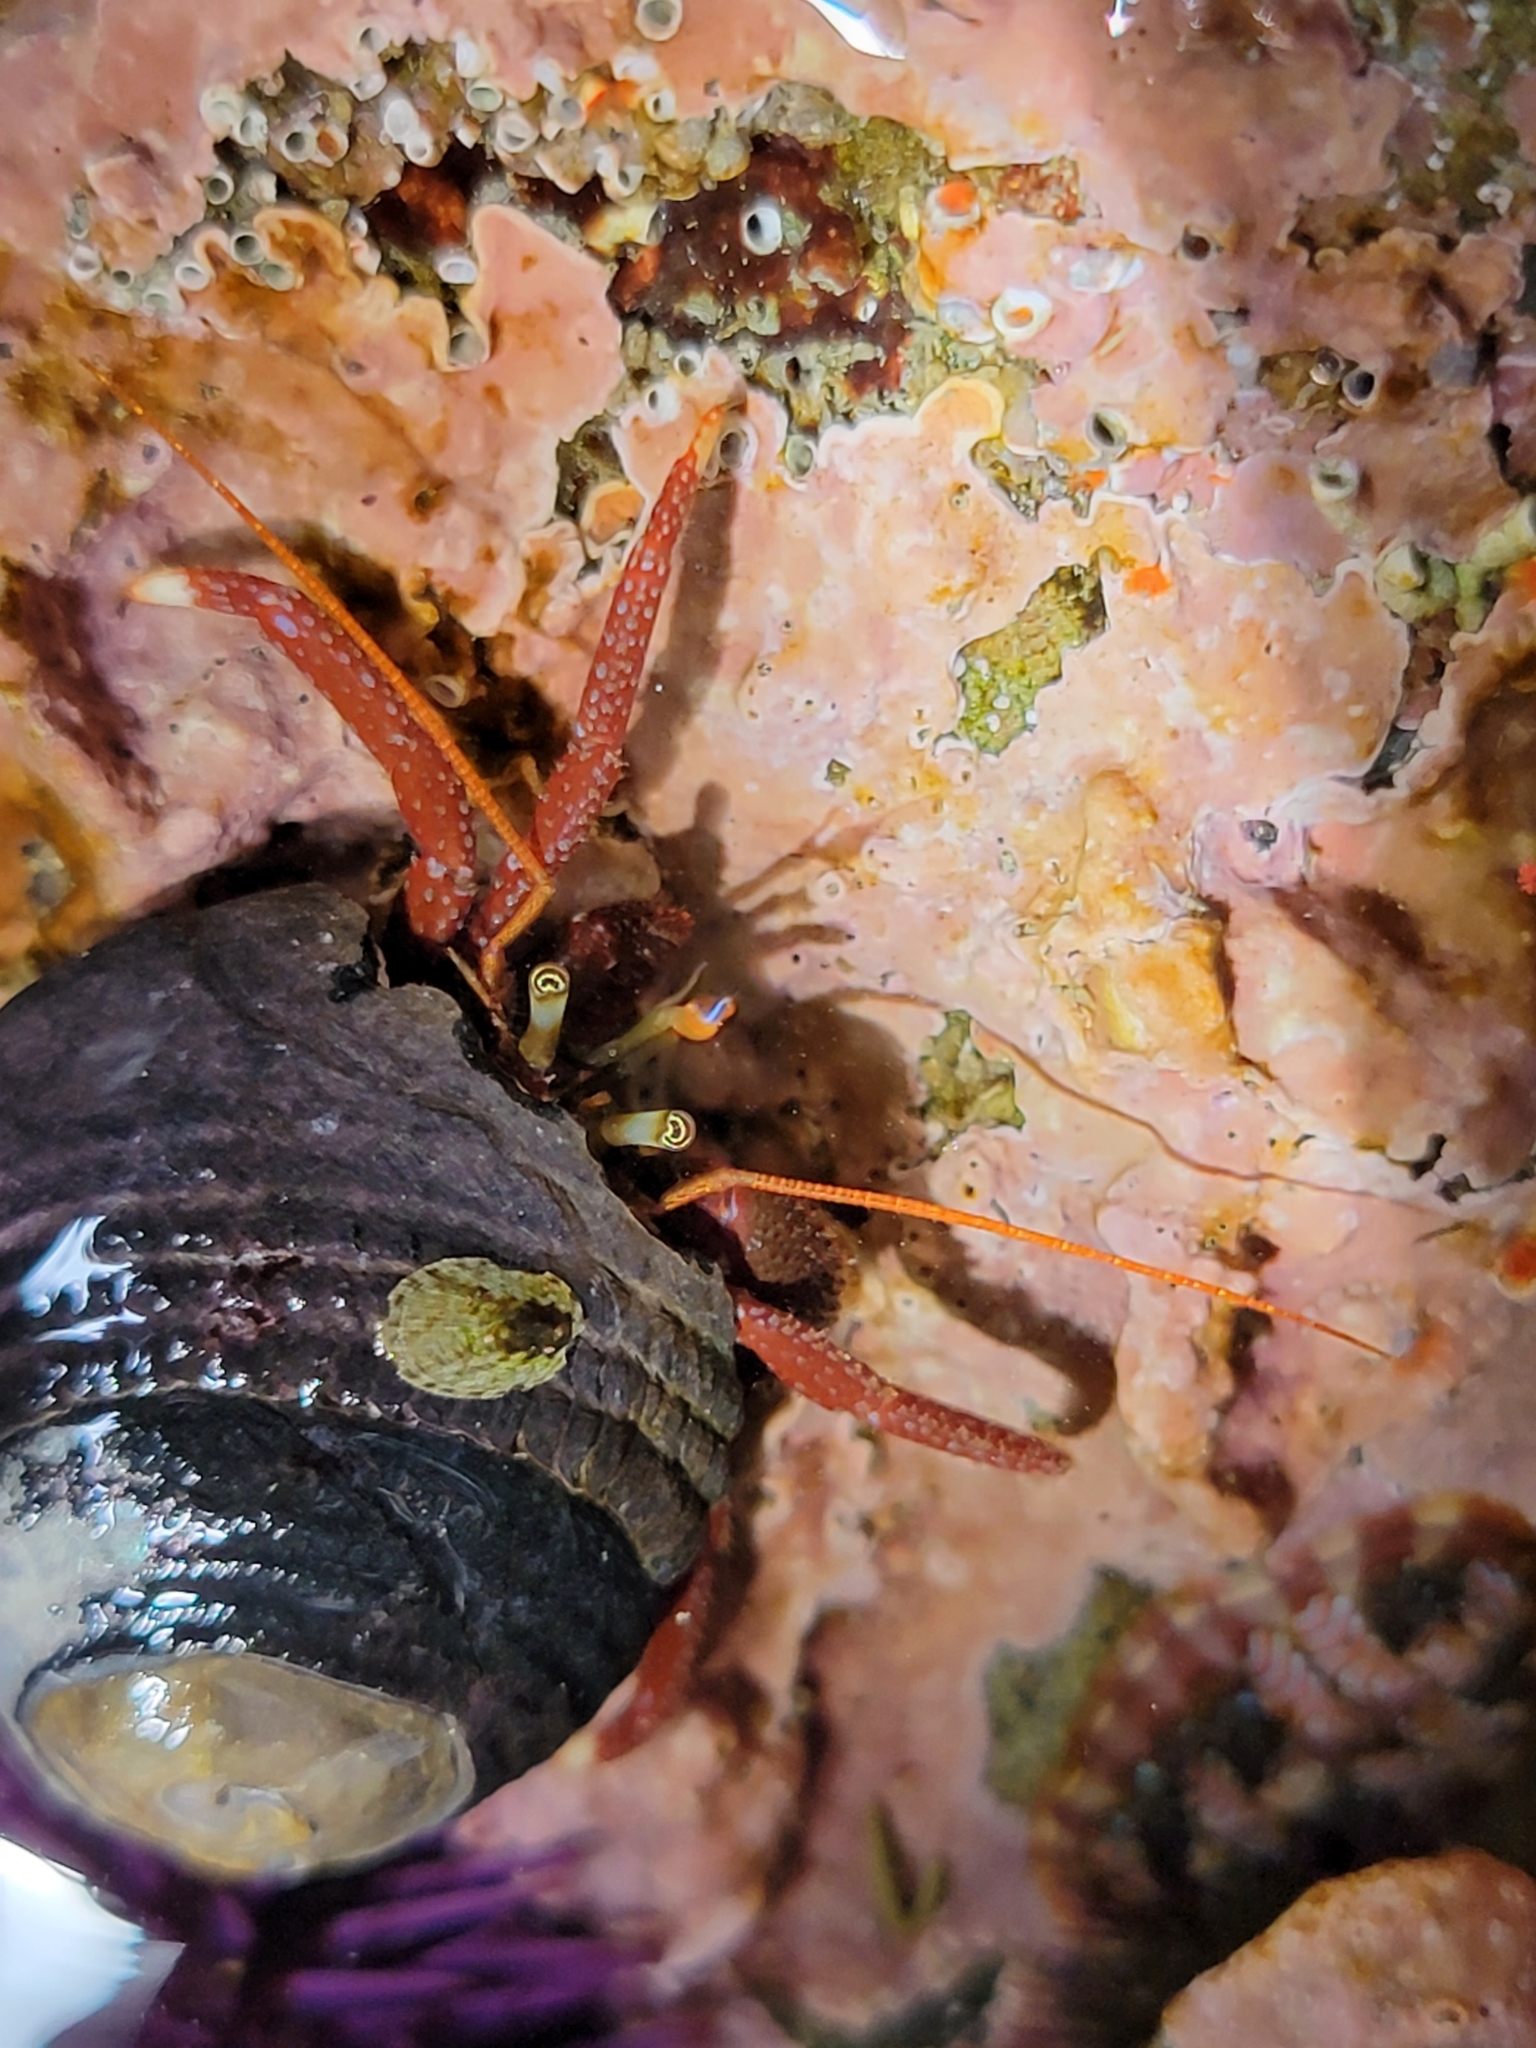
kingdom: Animalia
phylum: Arthropoda
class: Malacostraca
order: Decapoda
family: Paguridae
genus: Pagurus
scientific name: Pagurus hemphilli
